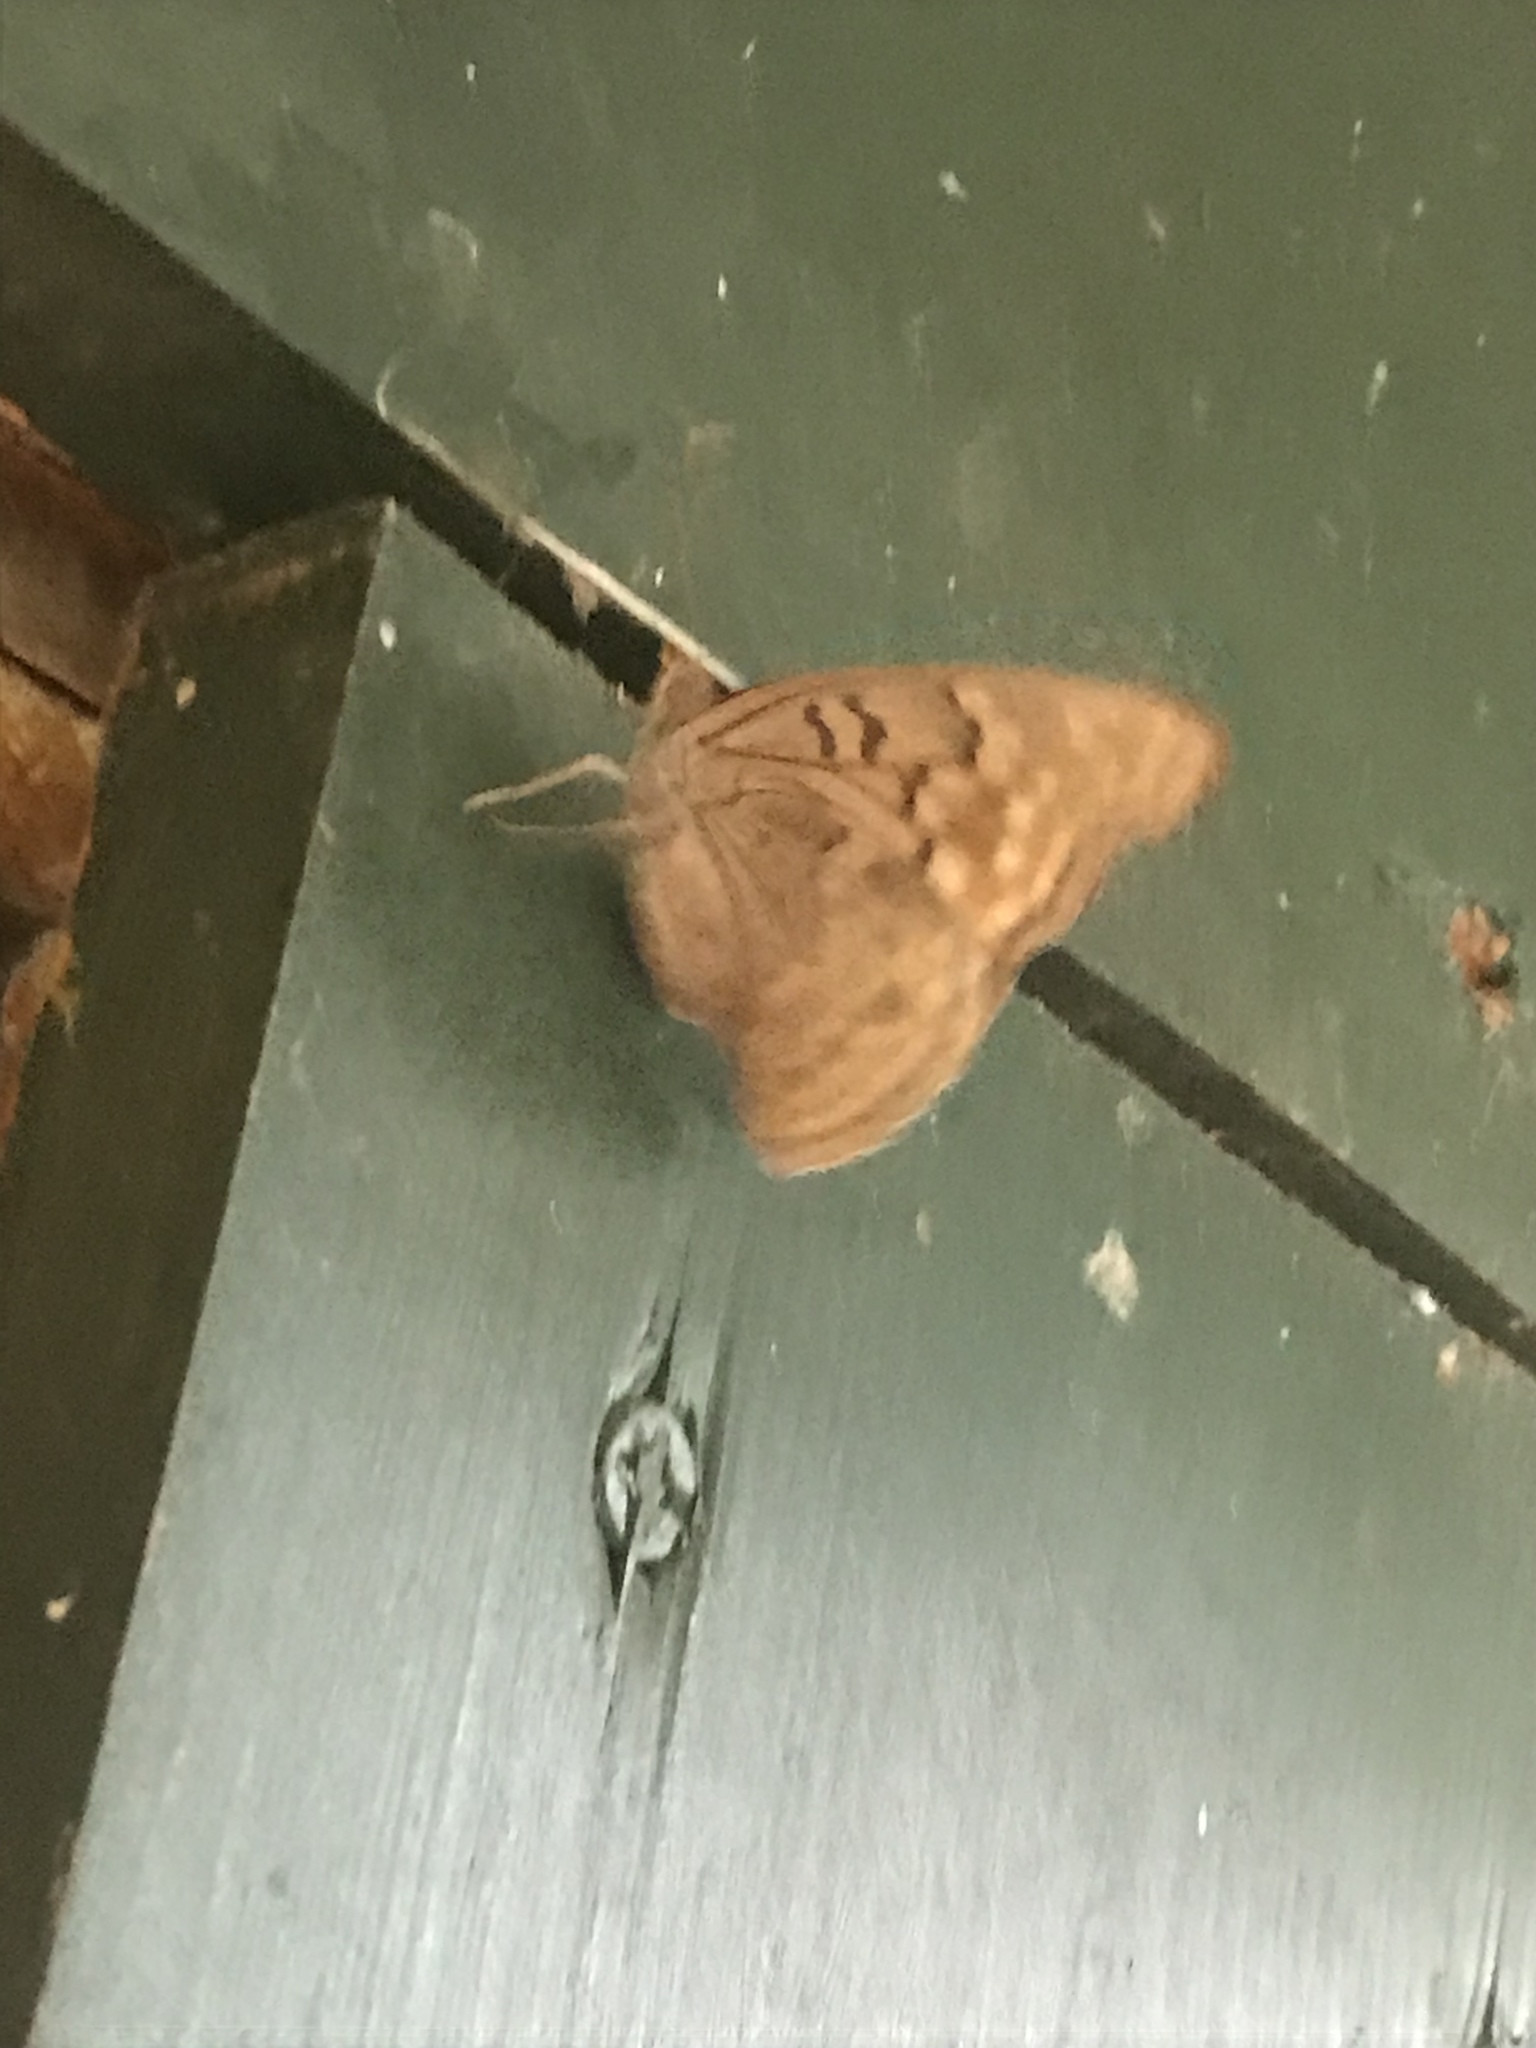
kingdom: Animalia
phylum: Arthropoda
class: Insecta
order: Lepidoptera
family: Nymphalidae
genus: Asterocampa
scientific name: Asterocampa clyton
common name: Tawny emperor
